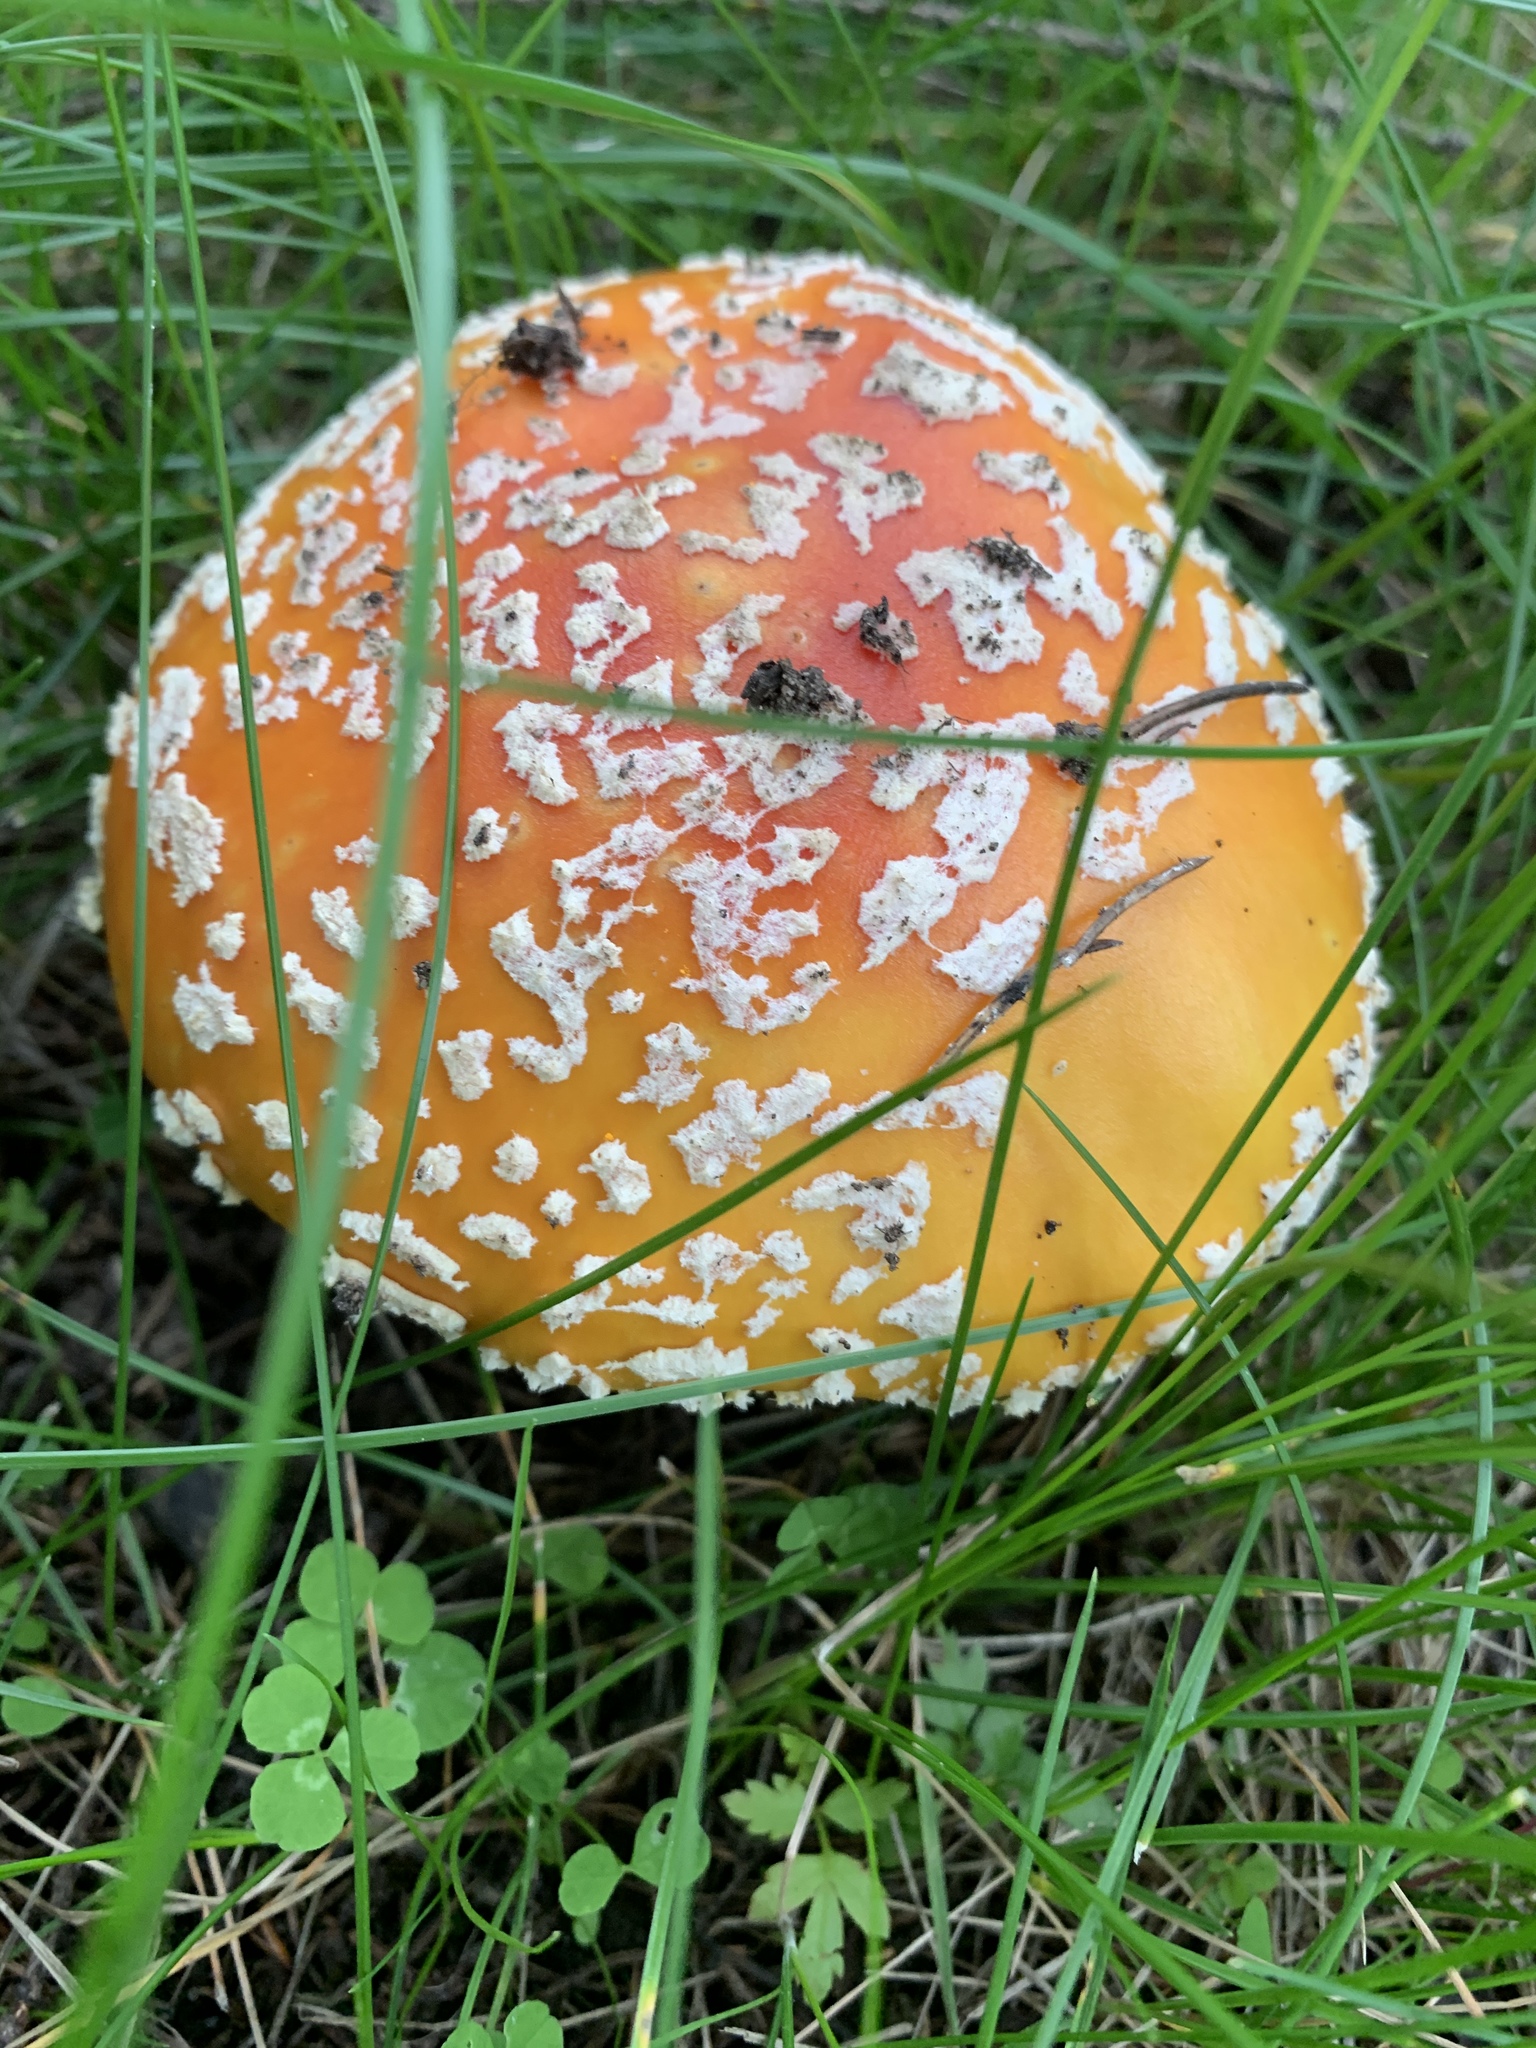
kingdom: Fungi
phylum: Basidiomycota
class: Agaricomycetes
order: Agaricales
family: Amanitaceae
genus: Amanita
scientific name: Amanita muscaria
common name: Fly agaric
